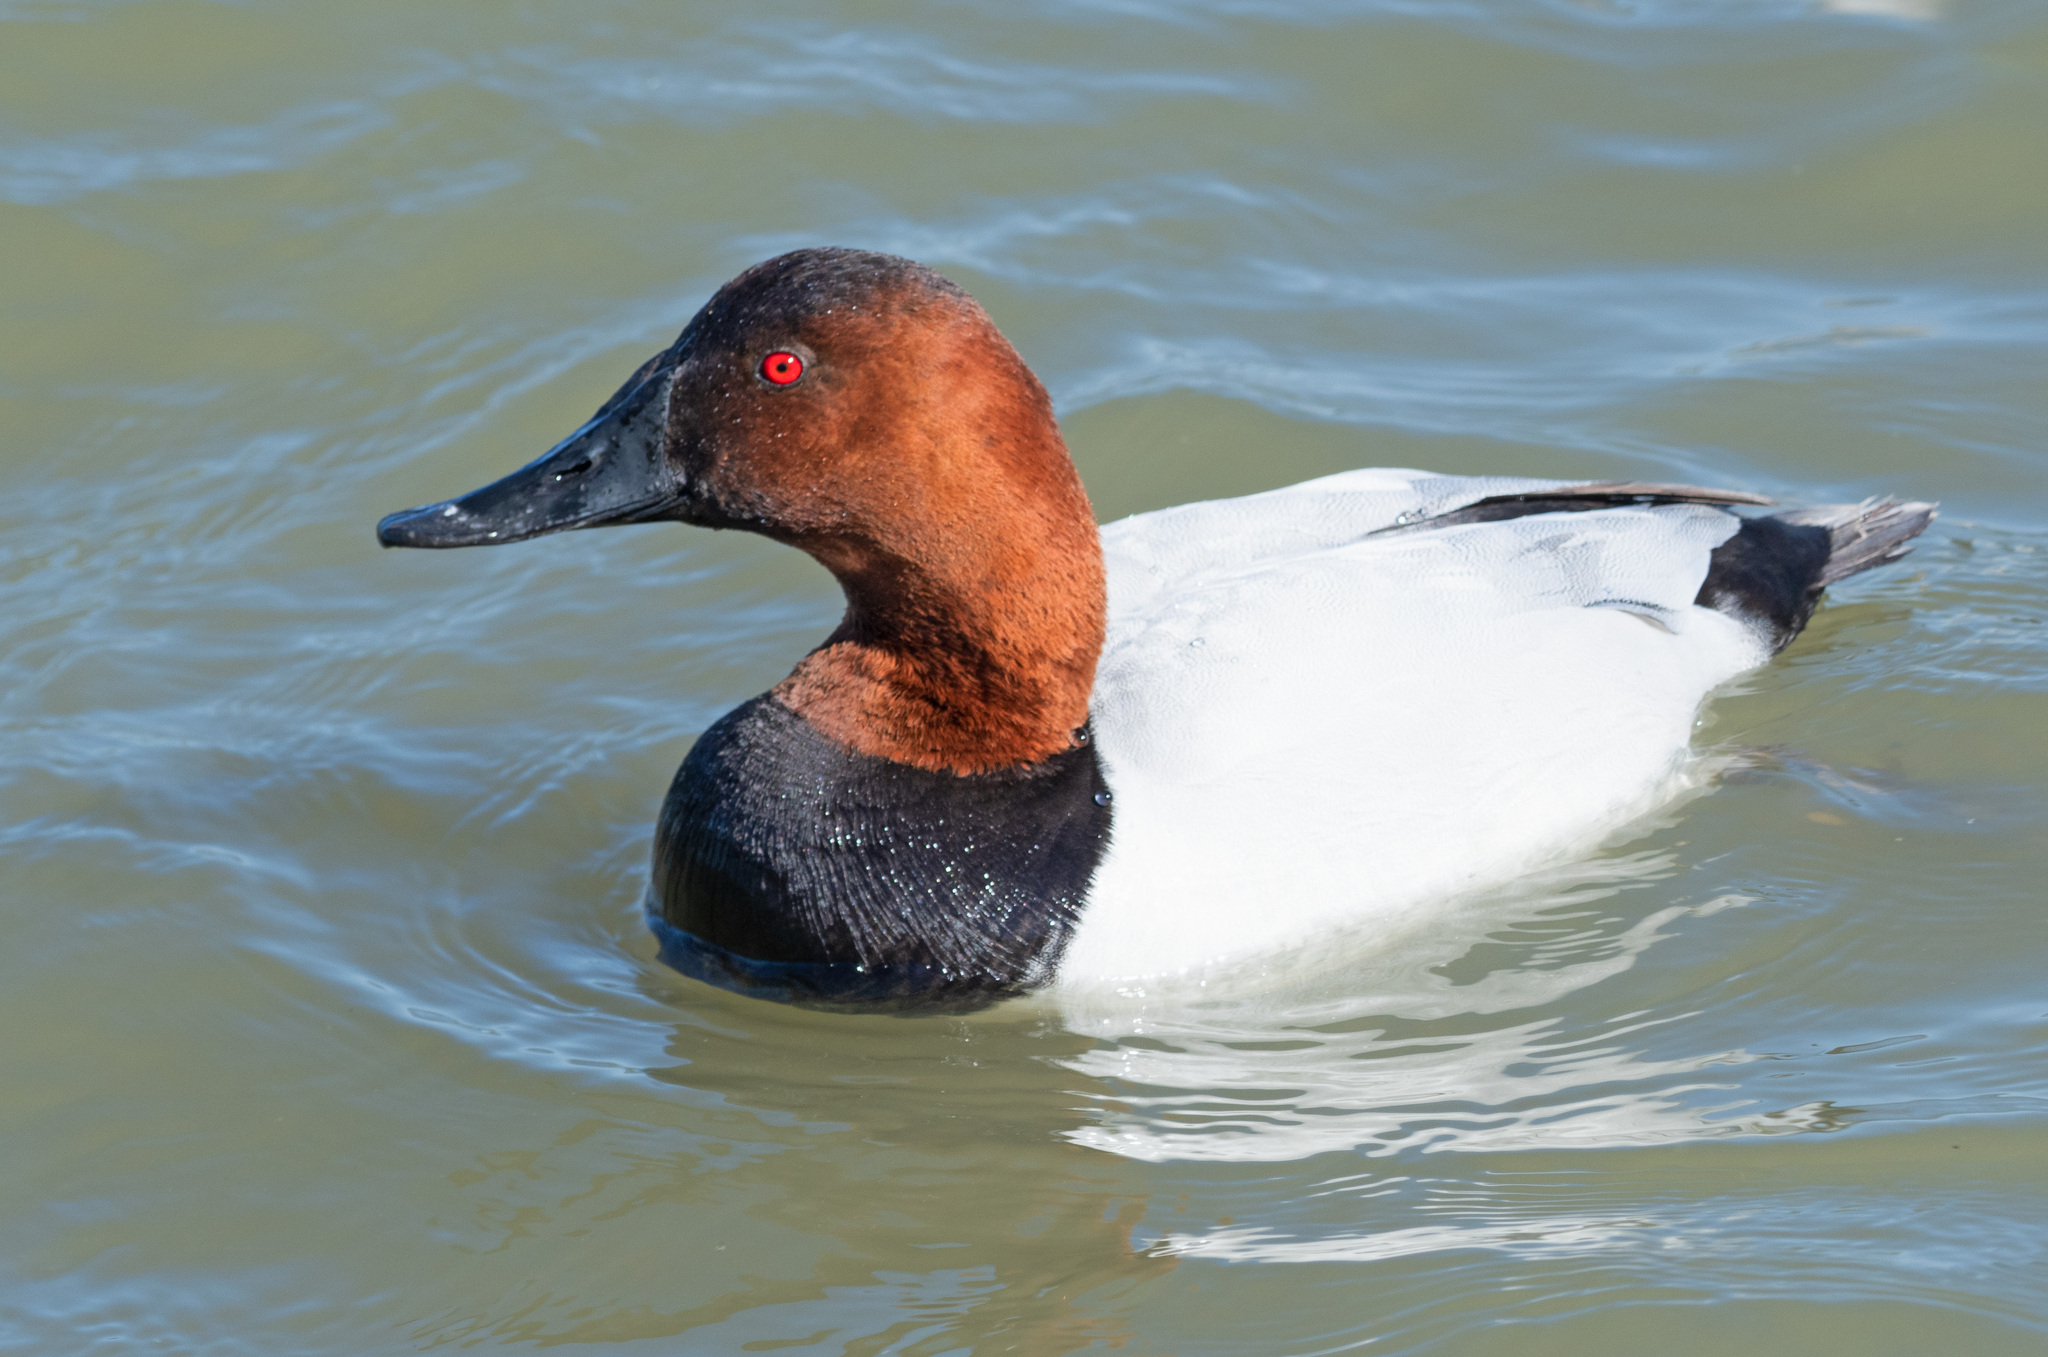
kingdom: Animalia
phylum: Chordata
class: Aves
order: Anseriformes
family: Anatidae
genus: Aythya
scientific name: Aythya valisineria
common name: Canvasback
